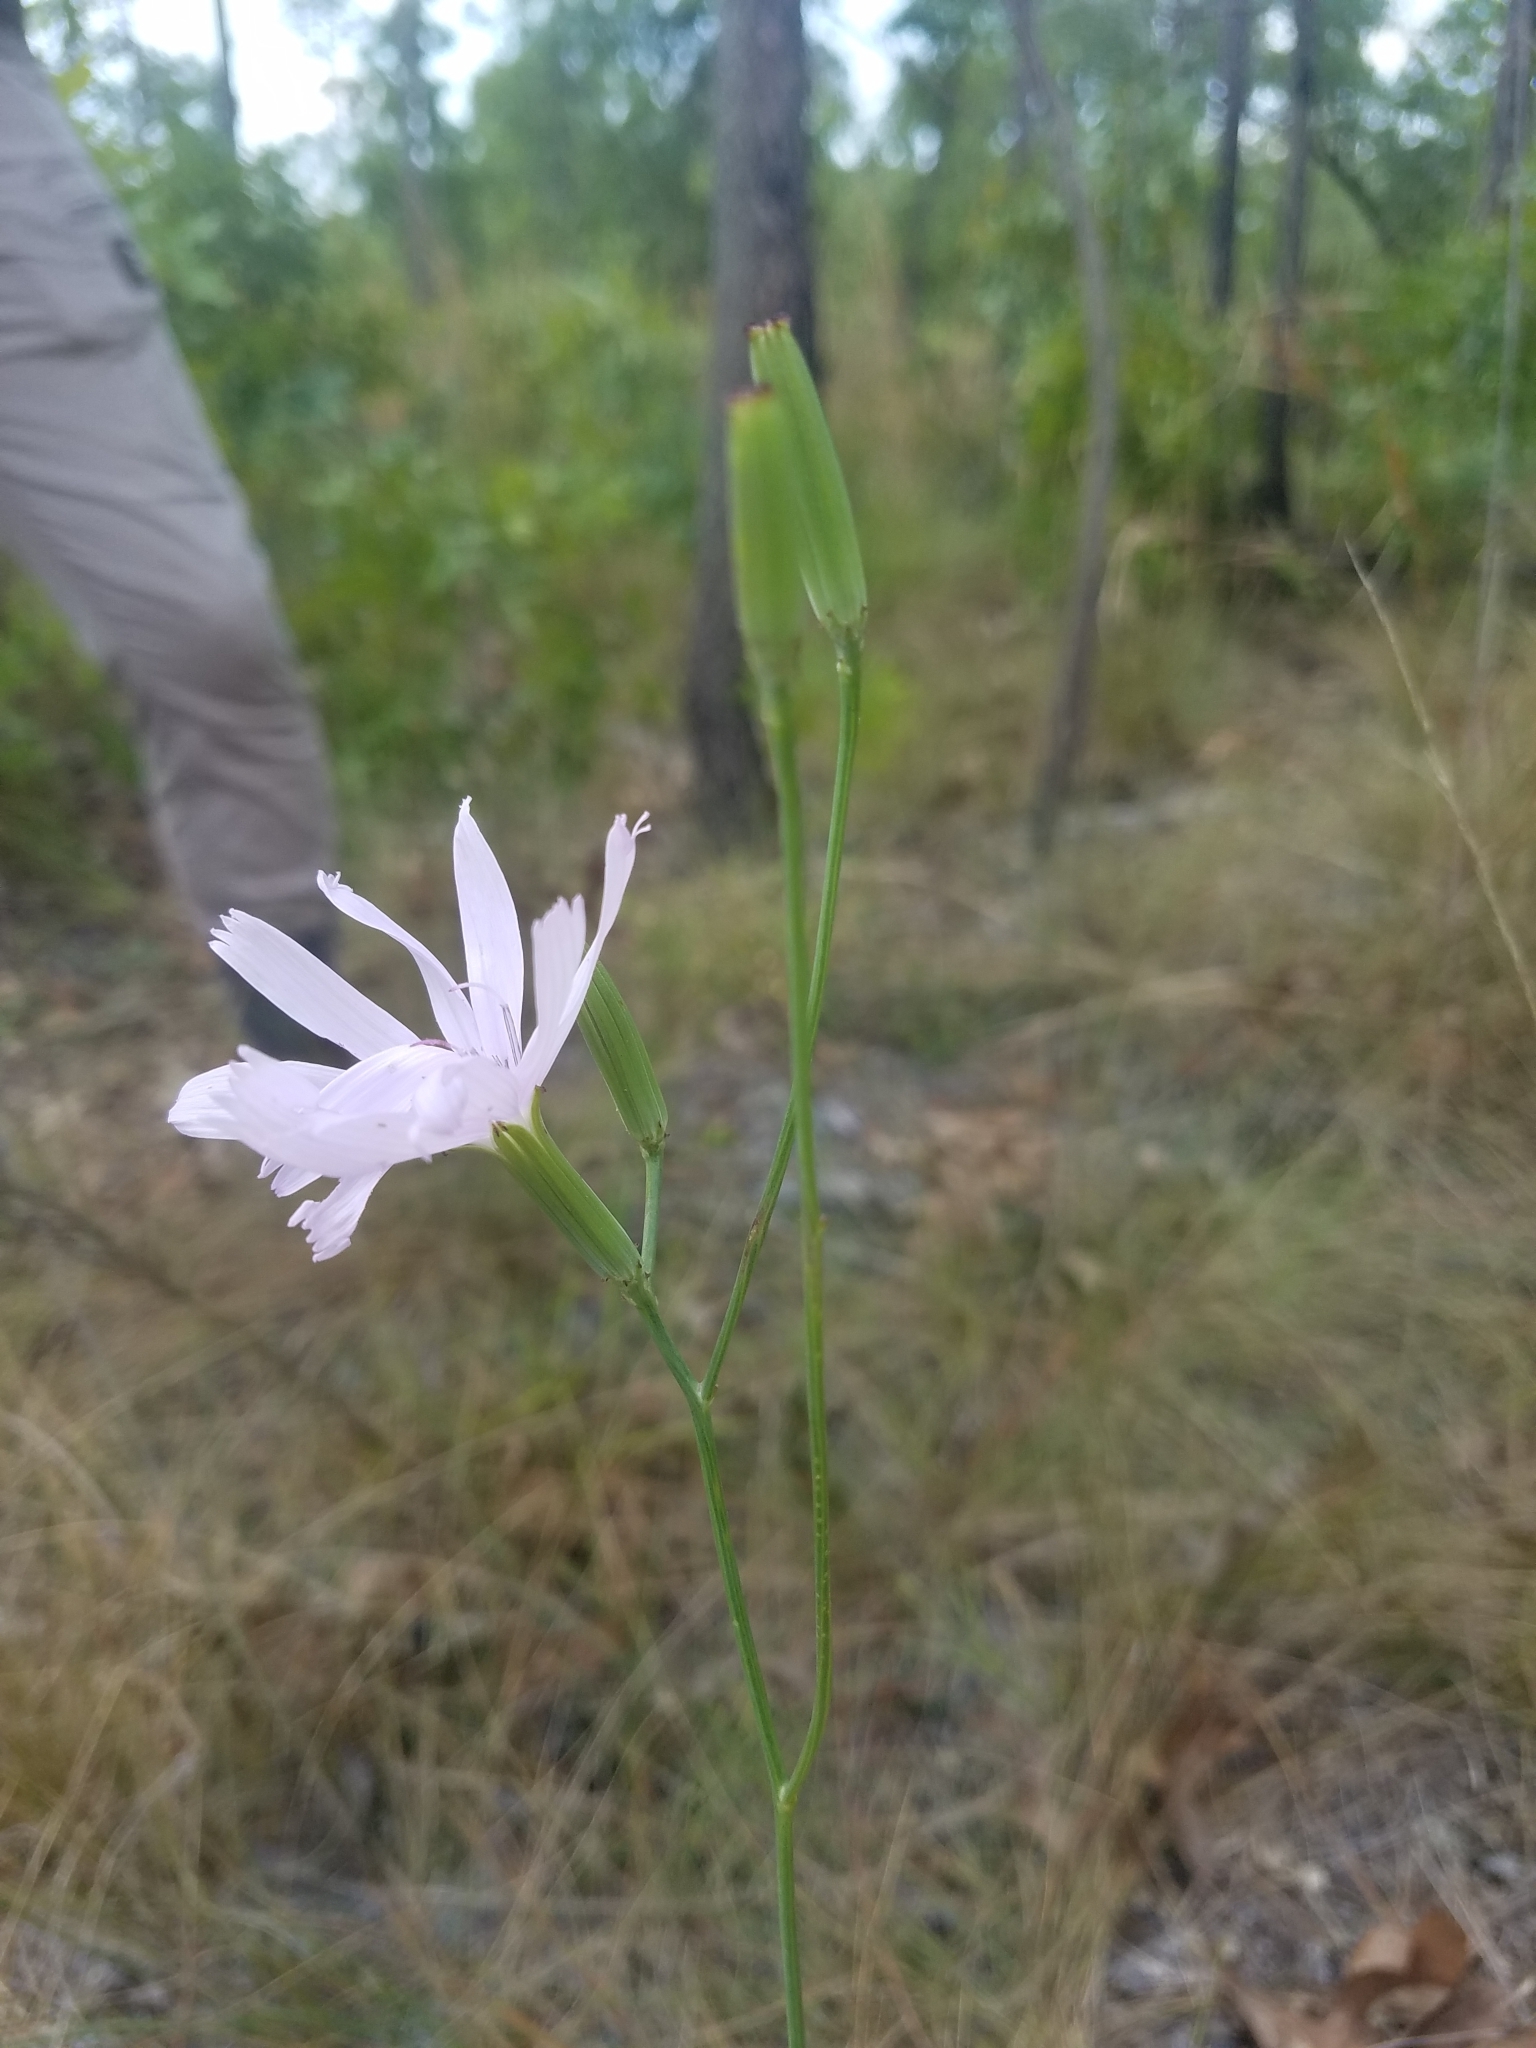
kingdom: Plantae
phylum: Tracheophyta
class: Magnoliopsida
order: Asterales
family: Asteraceae
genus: Lygodesmia
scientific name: Lygodesmia aphylla
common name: Rose-rush
